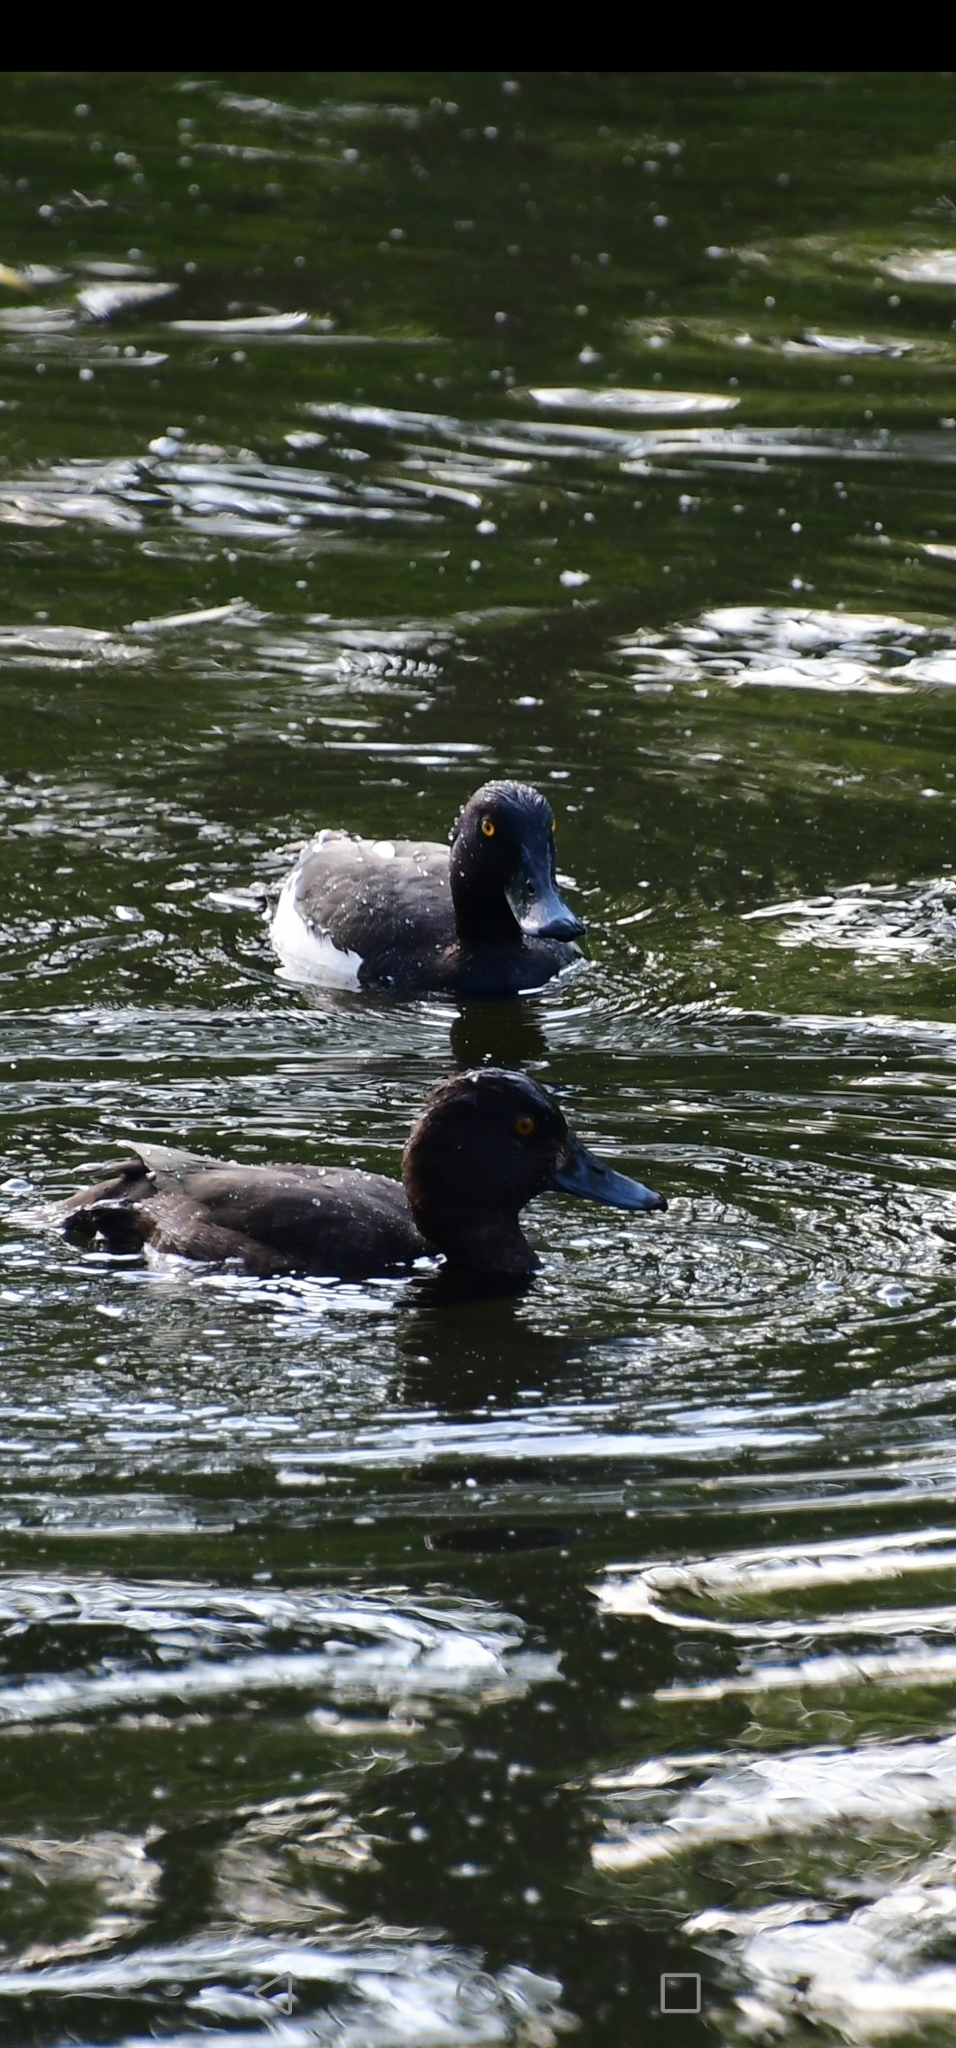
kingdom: Animalia
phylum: Chordata
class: Aves
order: Anseriformes
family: Anatidae
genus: Aythya
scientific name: Aythya fuligula
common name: Tufted duck
